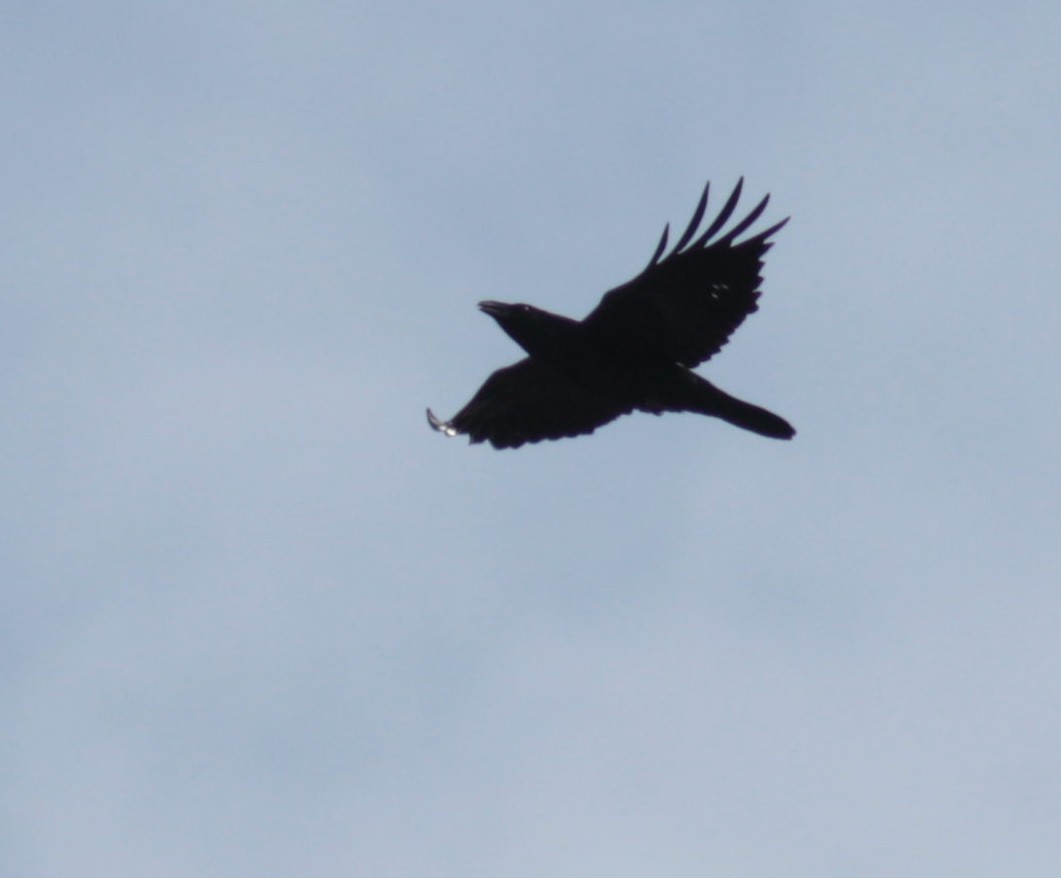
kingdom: Animalia
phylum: Chordata
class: Aves
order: Passeriformes
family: Corvidae
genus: Corvus
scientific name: Corvus corax
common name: Common raven
